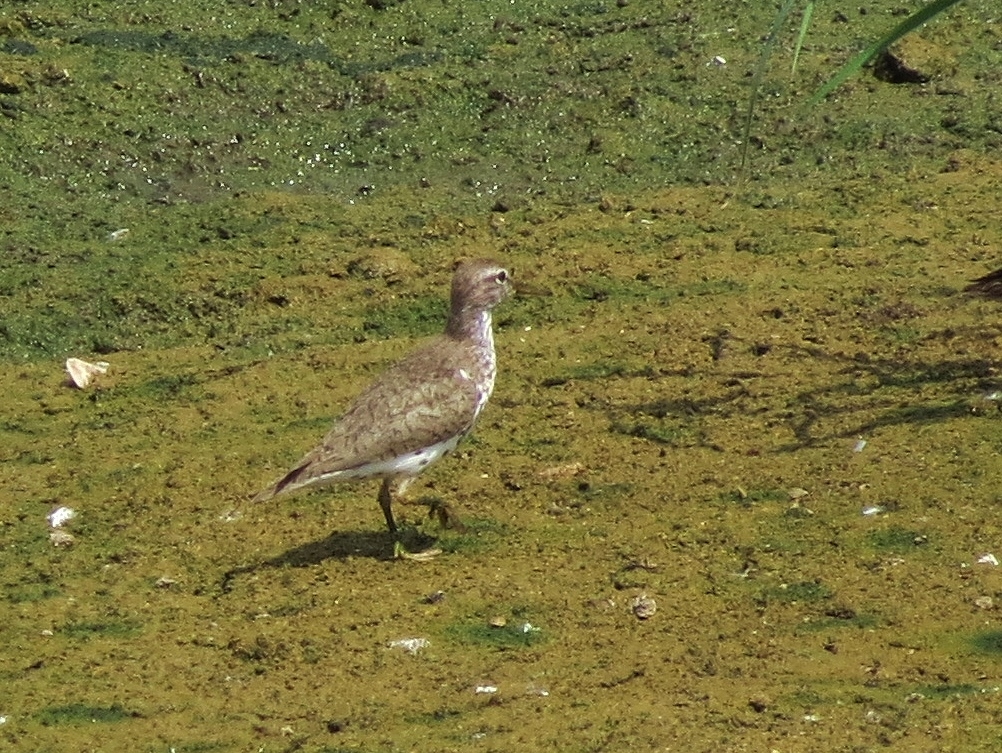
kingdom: Animalia
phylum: Chordata
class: Aves
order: Charadriiformes
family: Scolopacidae
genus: Actitis
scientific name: Actitis macularius
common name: Spotted sandpiper
